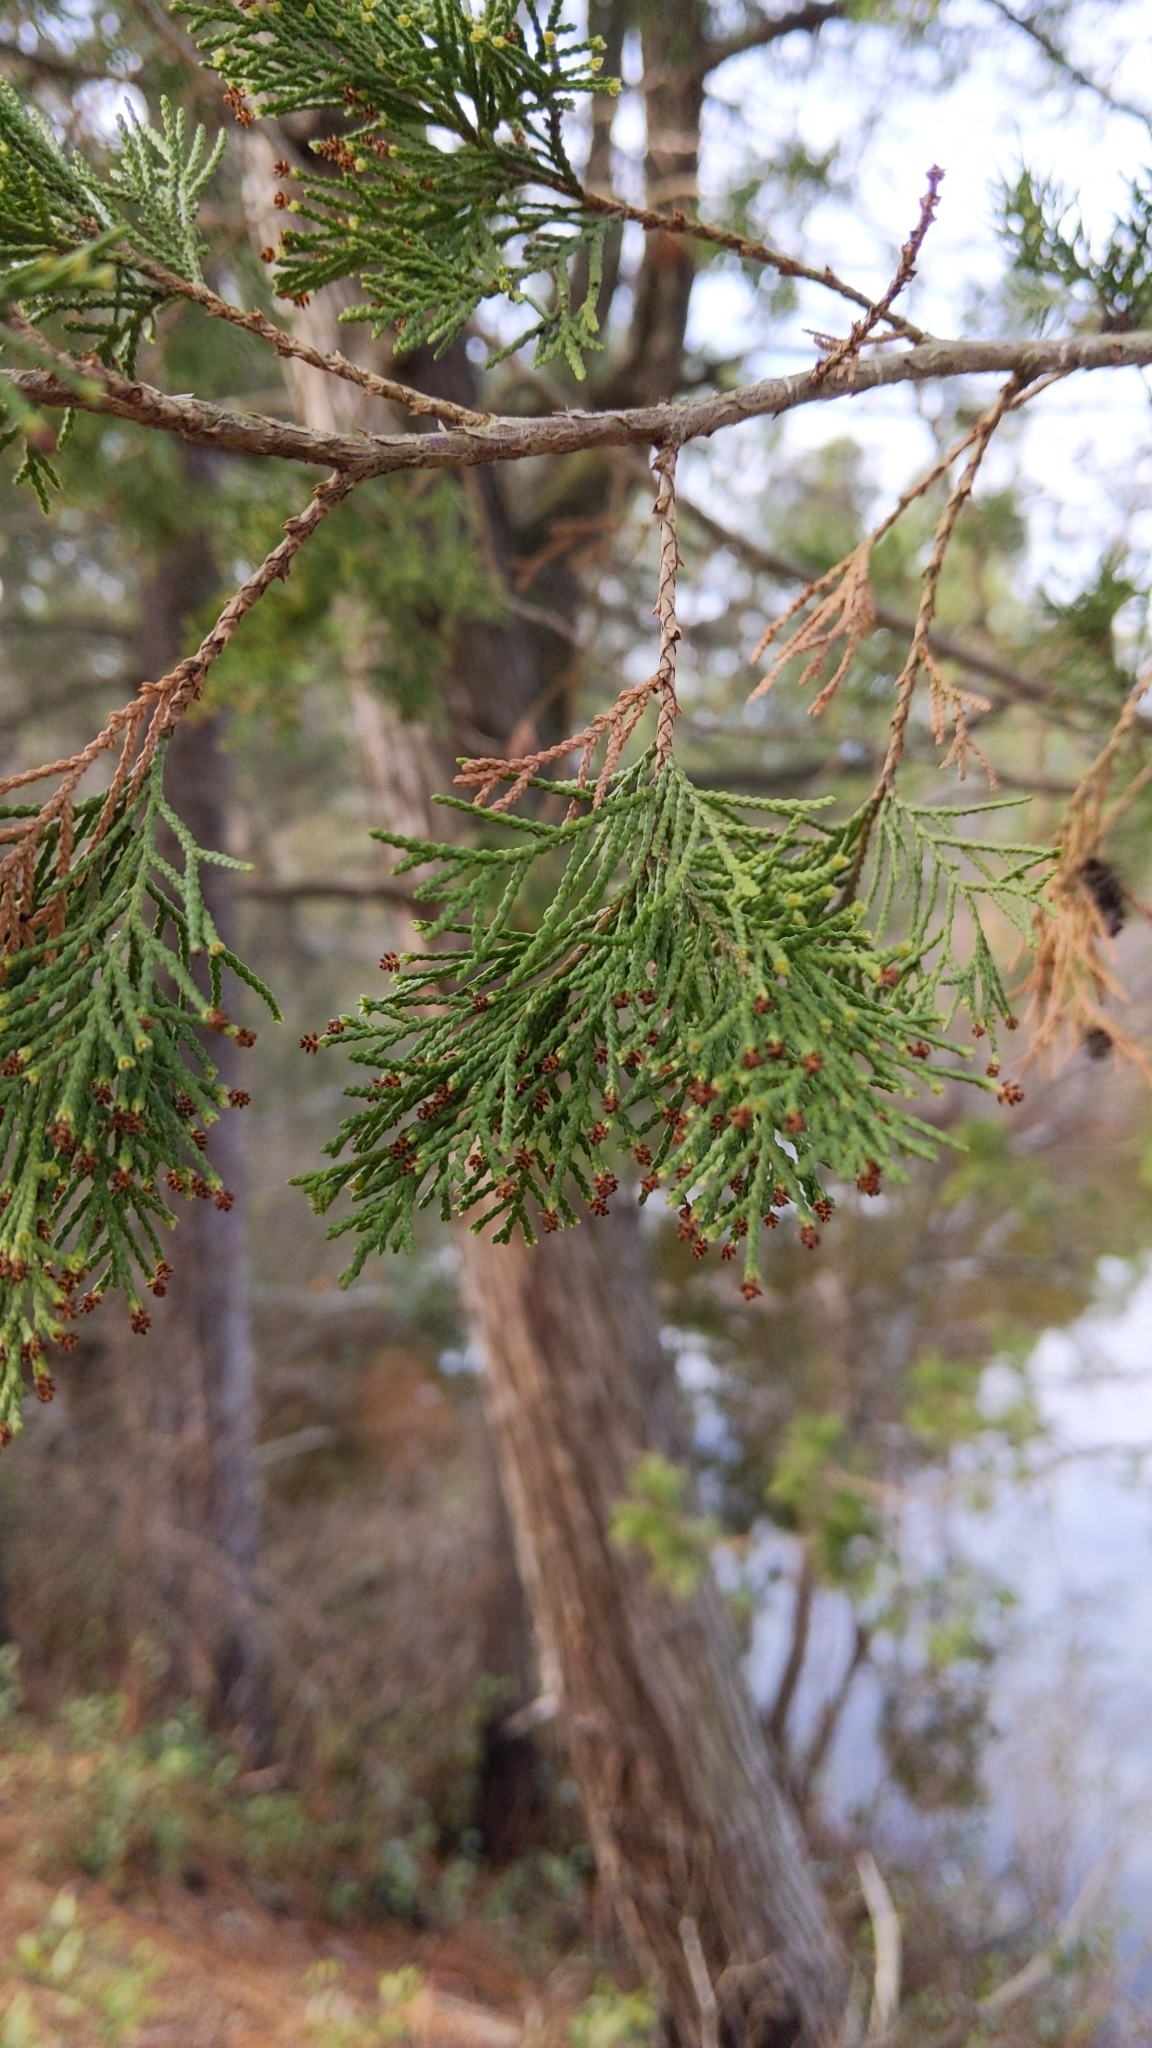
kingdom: Plantae
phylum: Tracheophyta
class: Pinopsida
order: Pinales
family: Cupressaceae
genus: Chamaecyparis
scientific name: Chamaecyparis thyoides
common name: Atlantic white cedar
